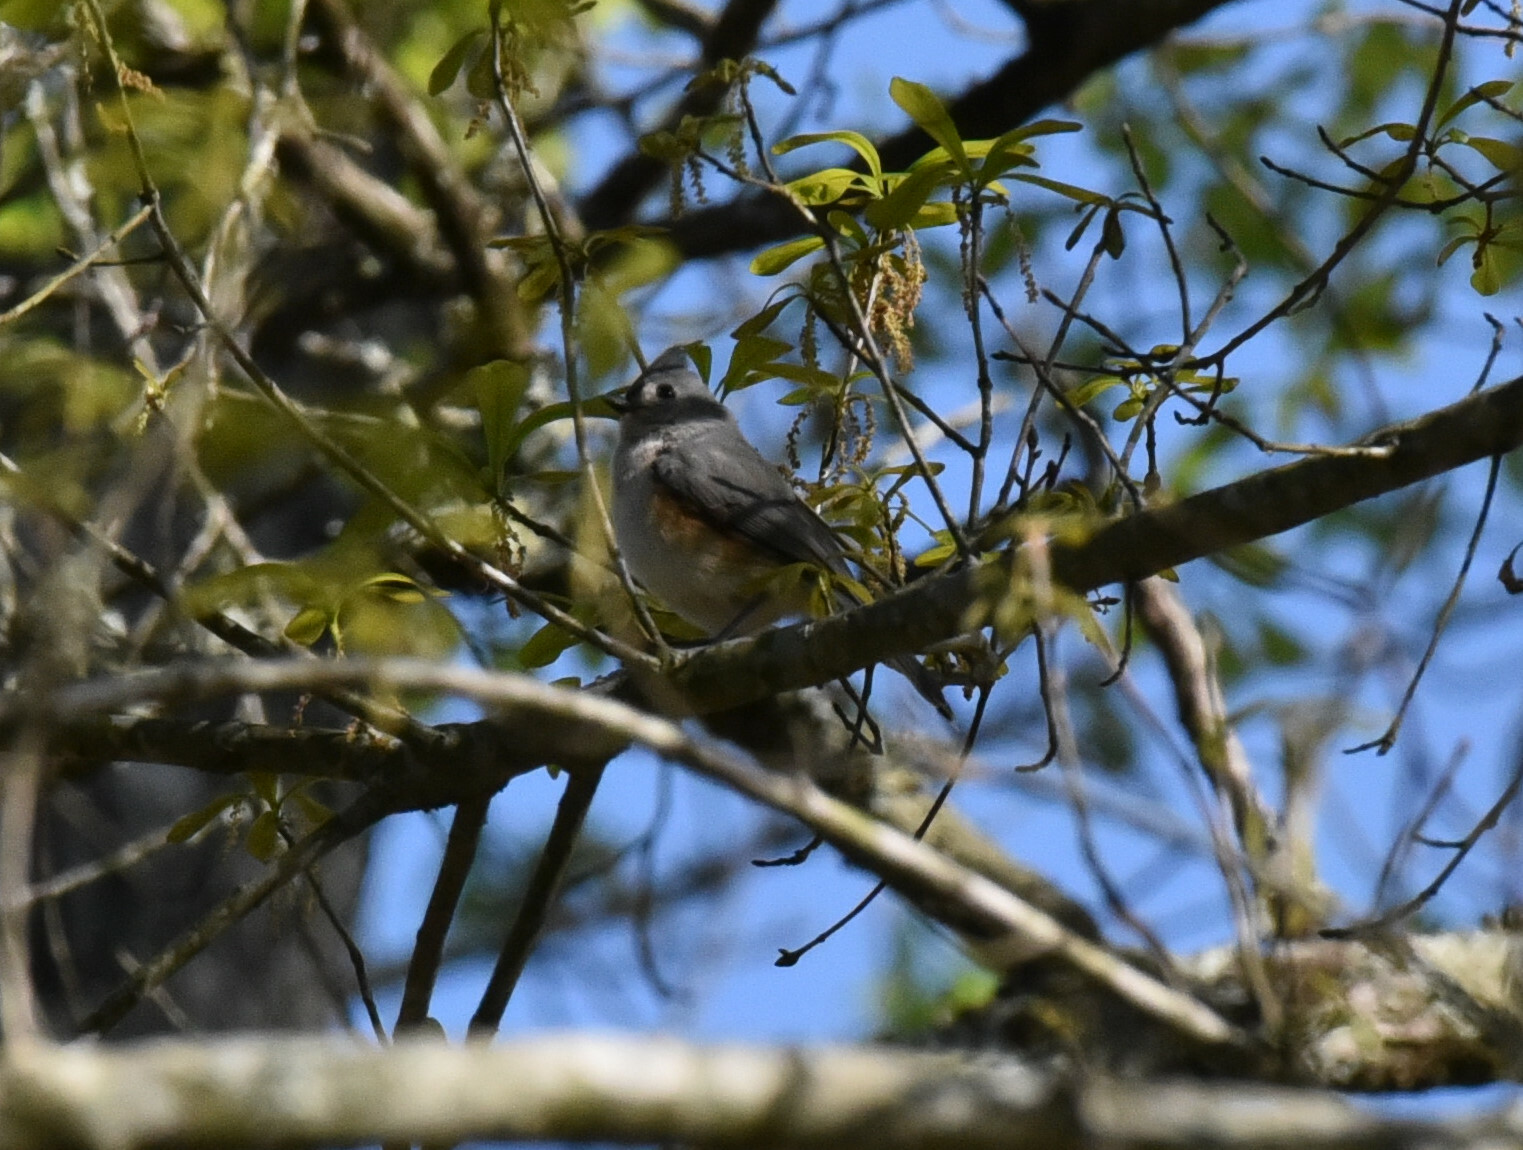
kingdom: Animalia
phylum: Chordata
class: Aves
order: Passeriformes
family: Paridae
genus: Baeolophus
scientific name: Baeolophus bicolor
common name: Tufted titmouse
